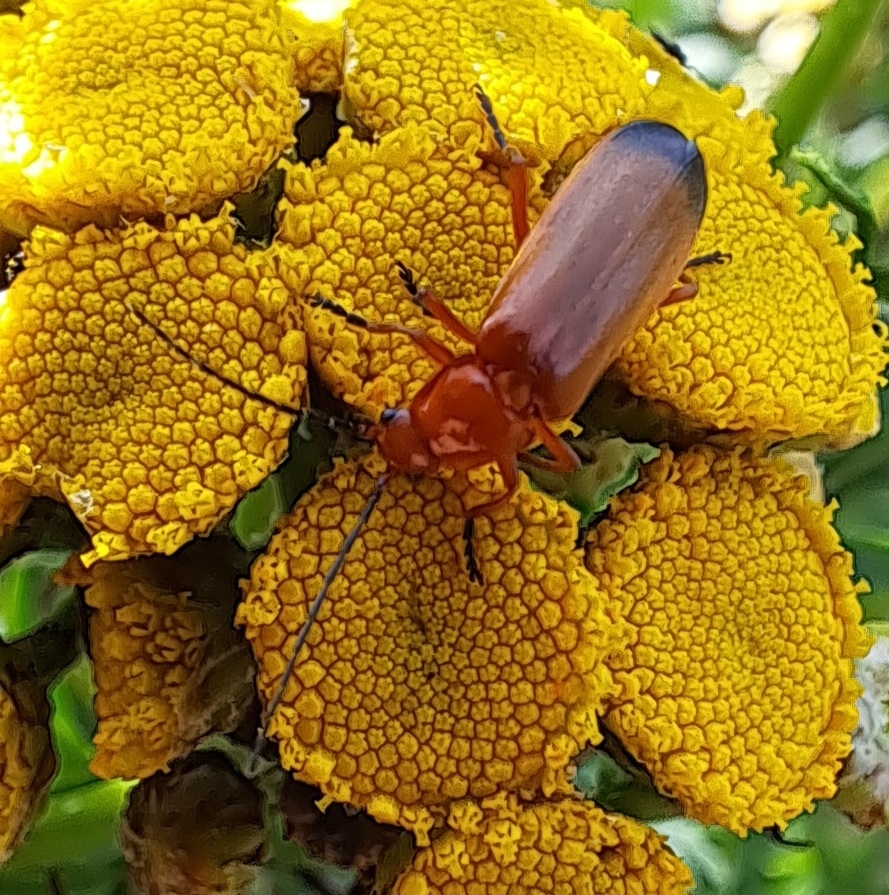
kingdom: Animalia
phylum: Arthropoda
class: Insecta
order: Coleoptera
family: Cantharidae
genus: Rhagonycha
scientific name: Rhagonycha fulva
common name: Common red soldier beetle
